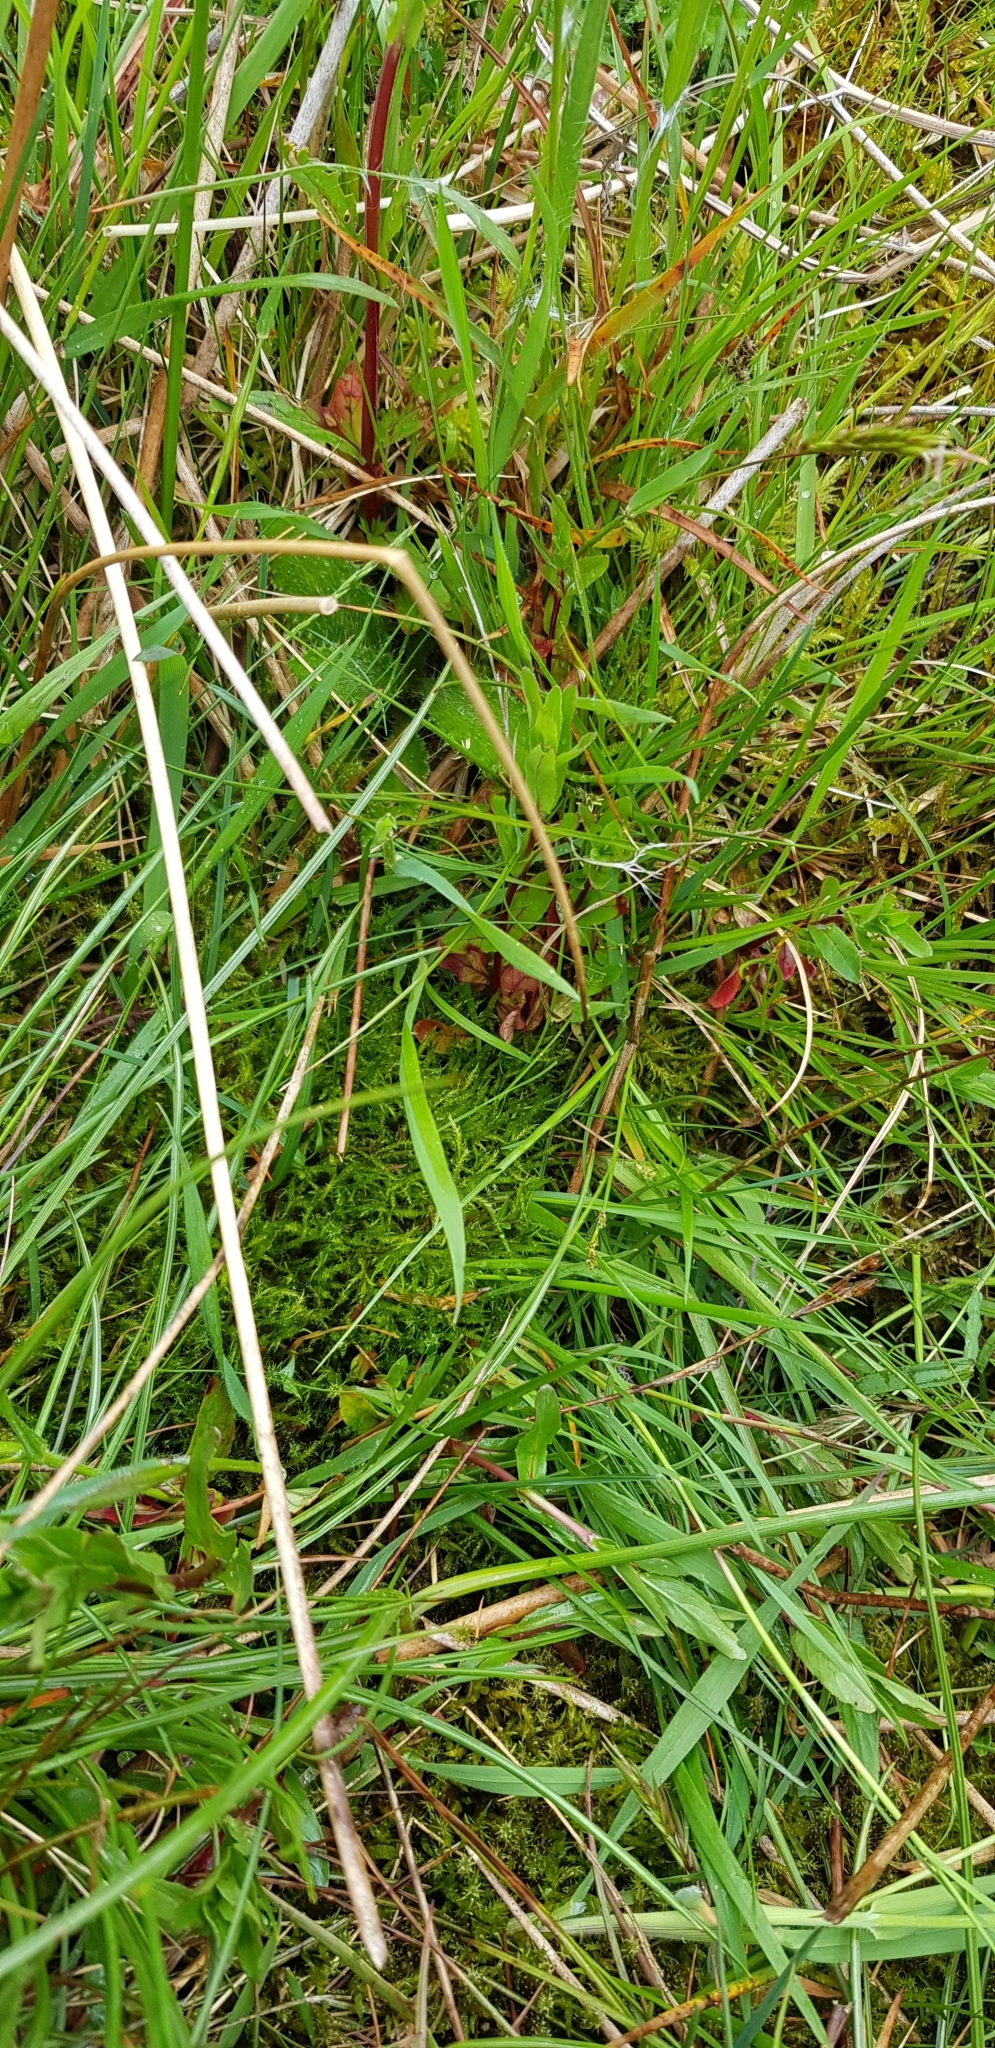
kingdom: Plantae
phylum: Bryophyta
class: Bryopsida
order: Hypnales
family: Pylaisiaceae
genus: Calliergonella
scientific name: Calliergonella cuspidata
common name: Common large wetland moss
